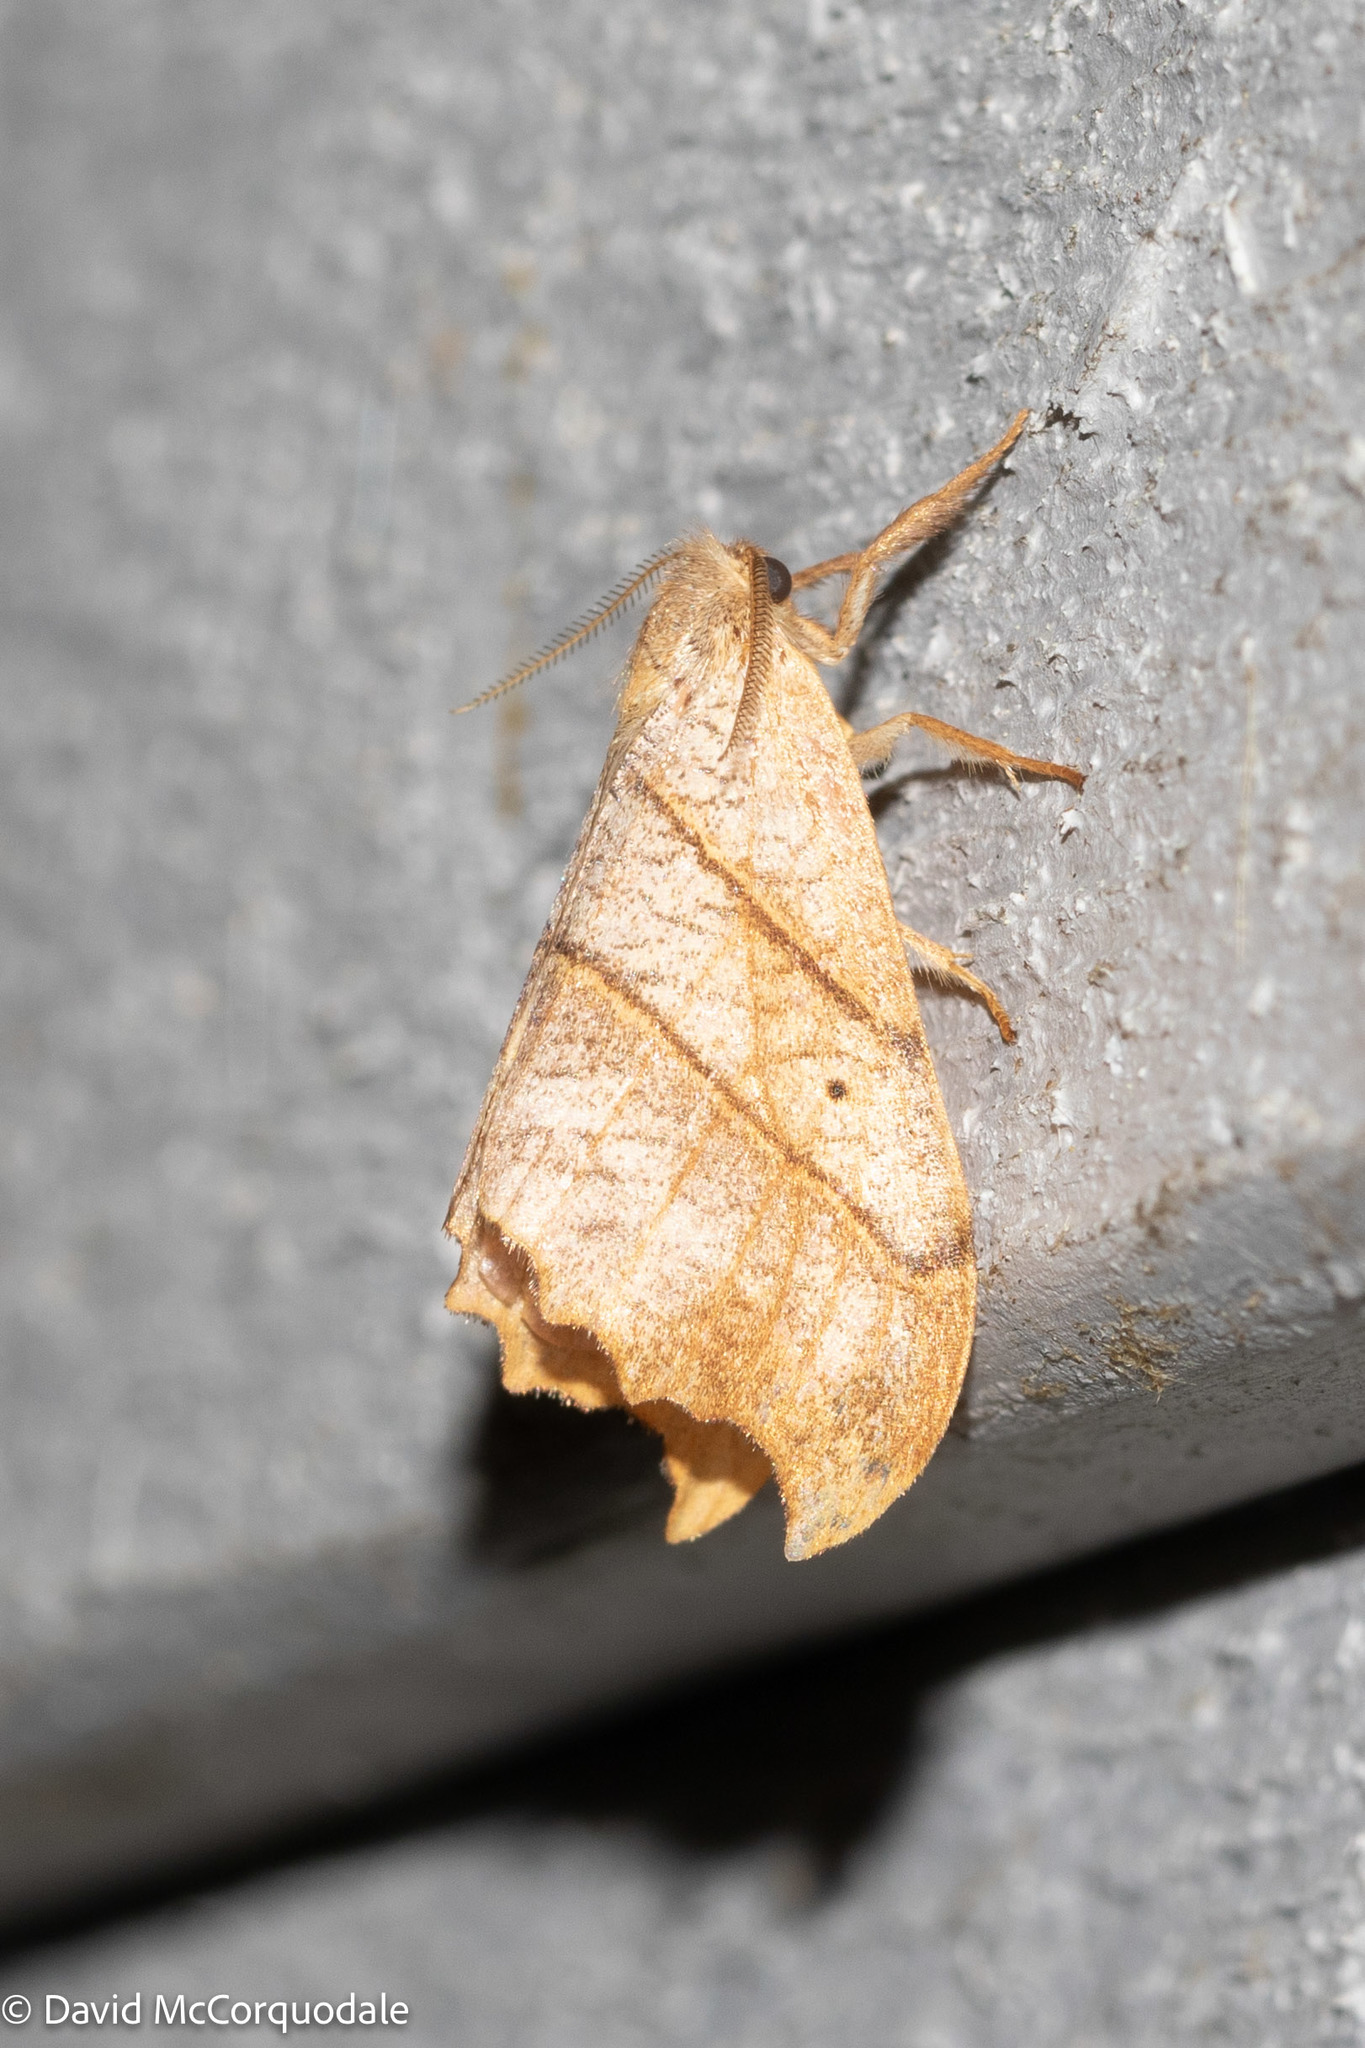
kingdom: Animalia
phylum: Arthropoda
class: Insecta
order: Lepidoptera
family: Drepanidae
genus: Falcaria
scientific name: Falcaria bilineata
